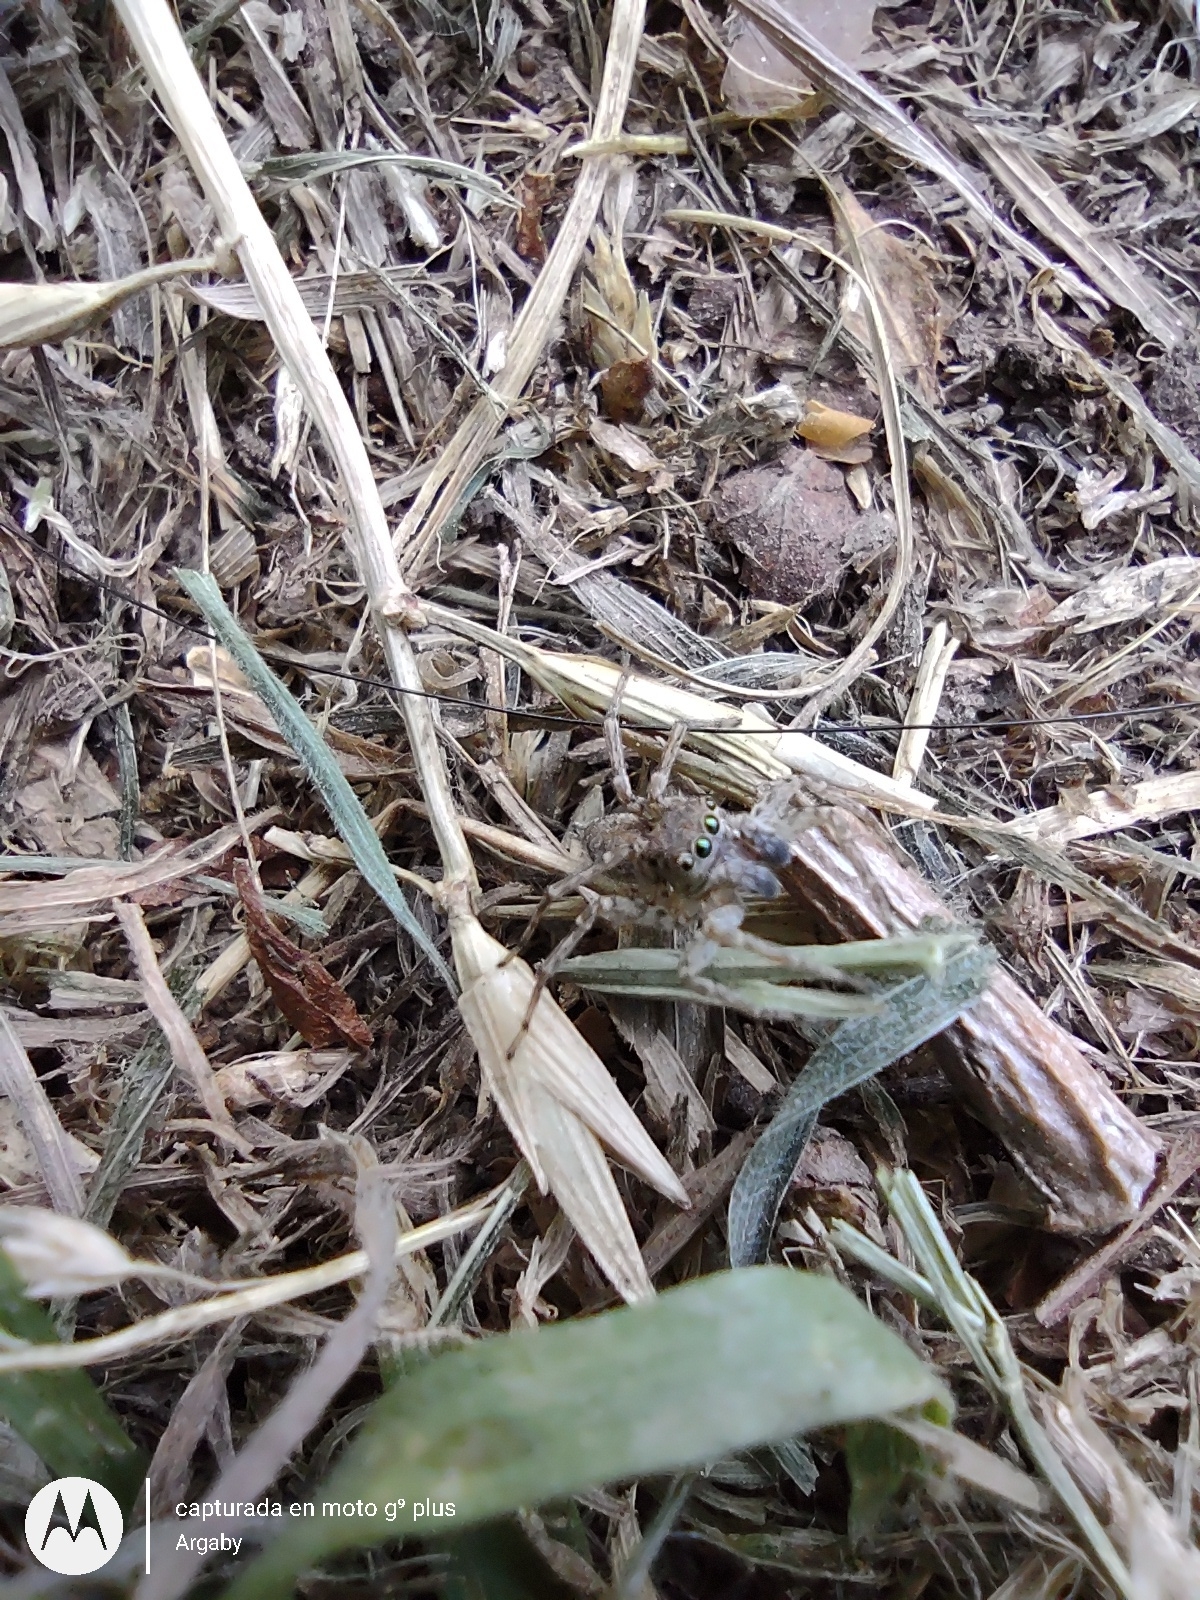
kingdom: Animalia
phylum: Arthropoda
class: Arachnida
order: Araneae
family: Salticidae
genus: Saitis
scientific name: Saitis variegatus
